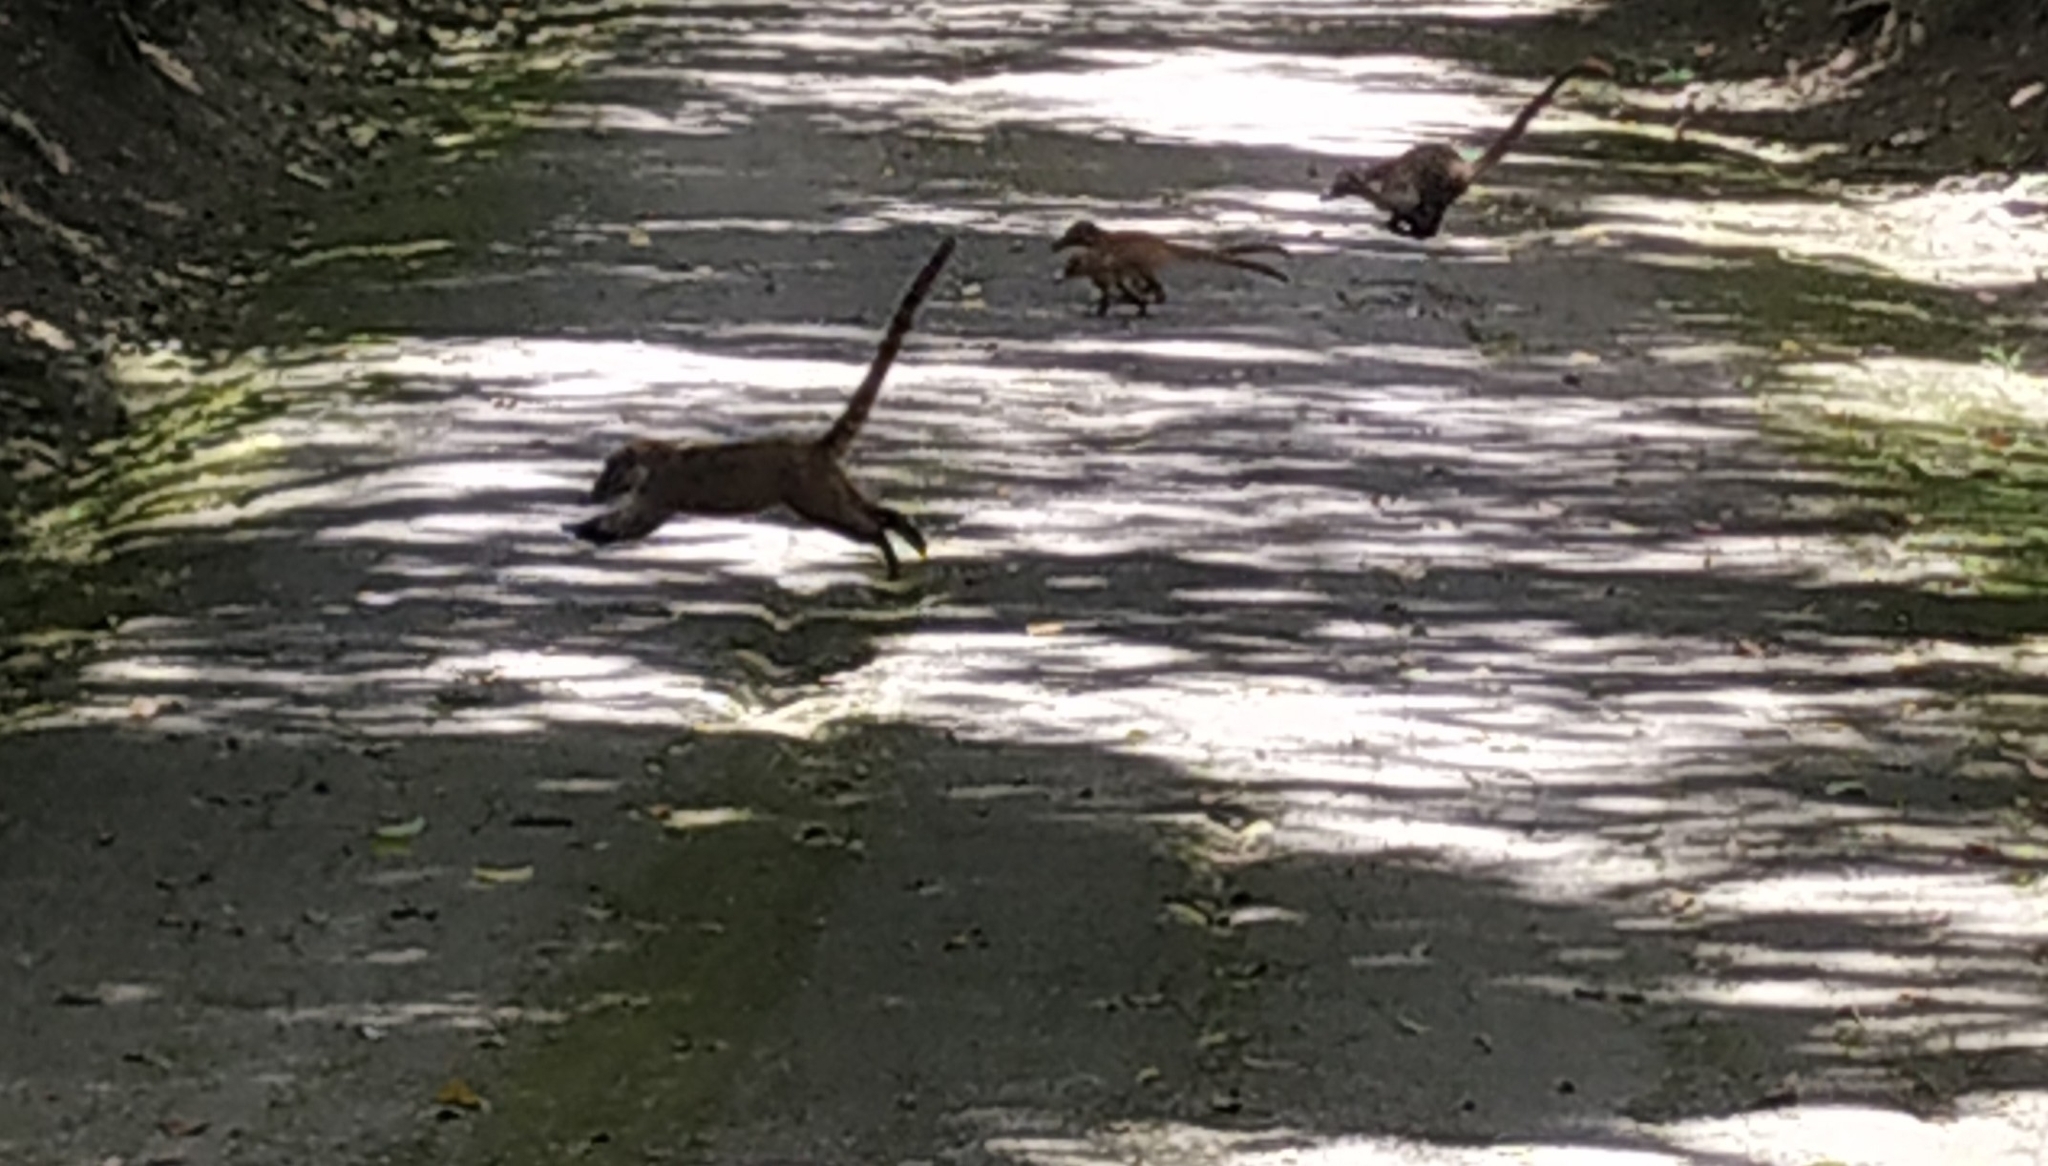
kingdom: Animalia
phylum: Chordata
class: Mammalia
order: Carnivora
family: Procyonidae
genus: Nasua
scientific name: Nasua narica
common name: White-nosed coati
